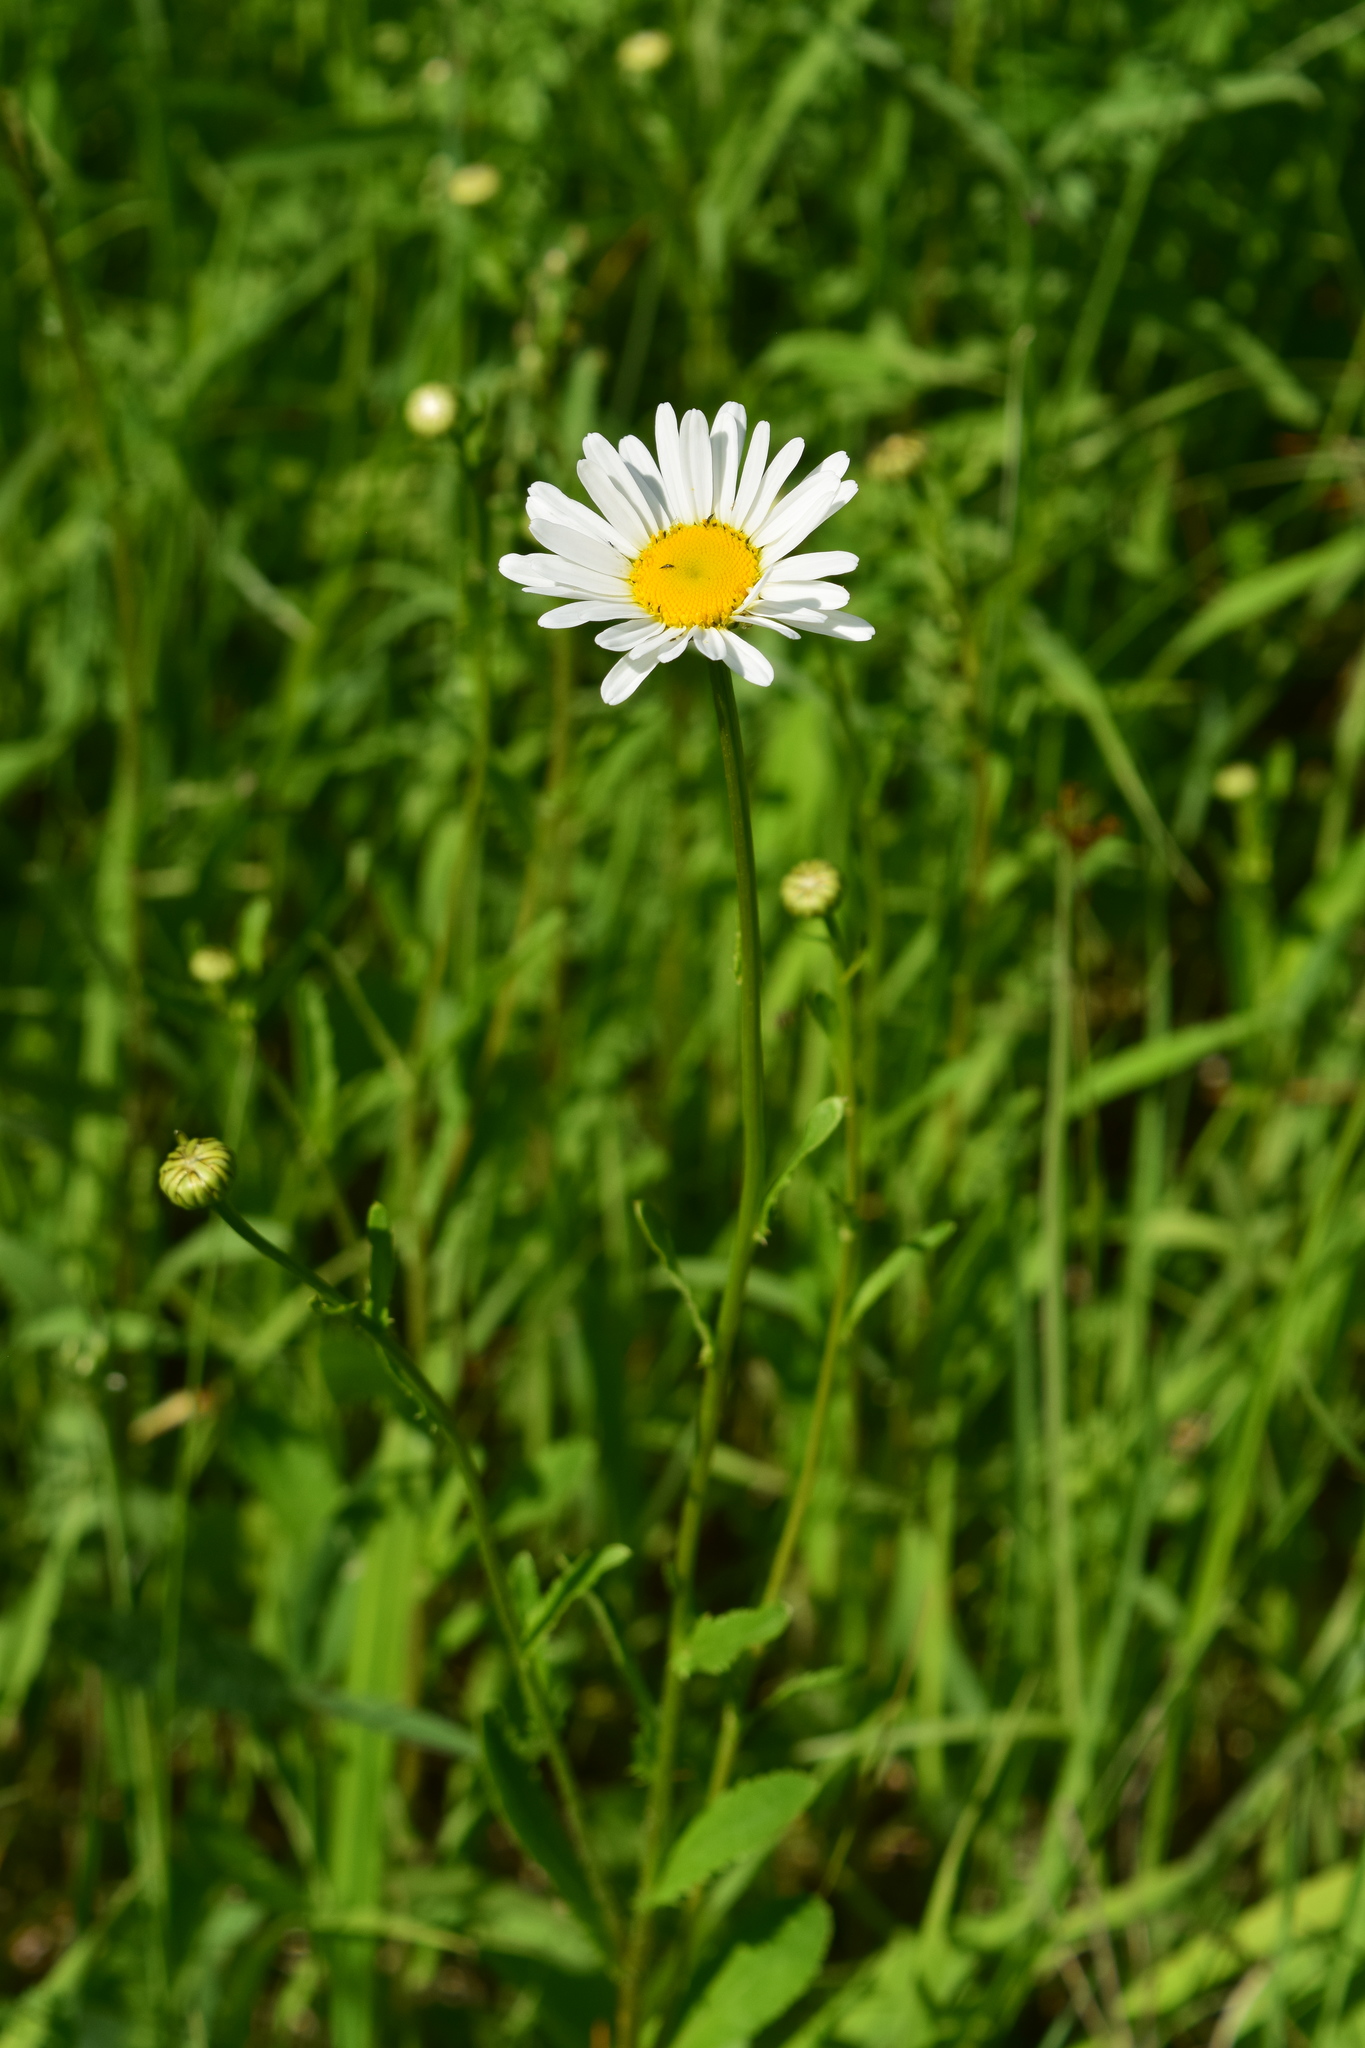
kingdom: Plantae
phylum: Tracheophyta
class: Magnoliopsida
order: Asterales
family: Asteraceae
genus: Leucanthemum
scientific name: Leucanthemum vulgare
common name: Oxeye daisy
